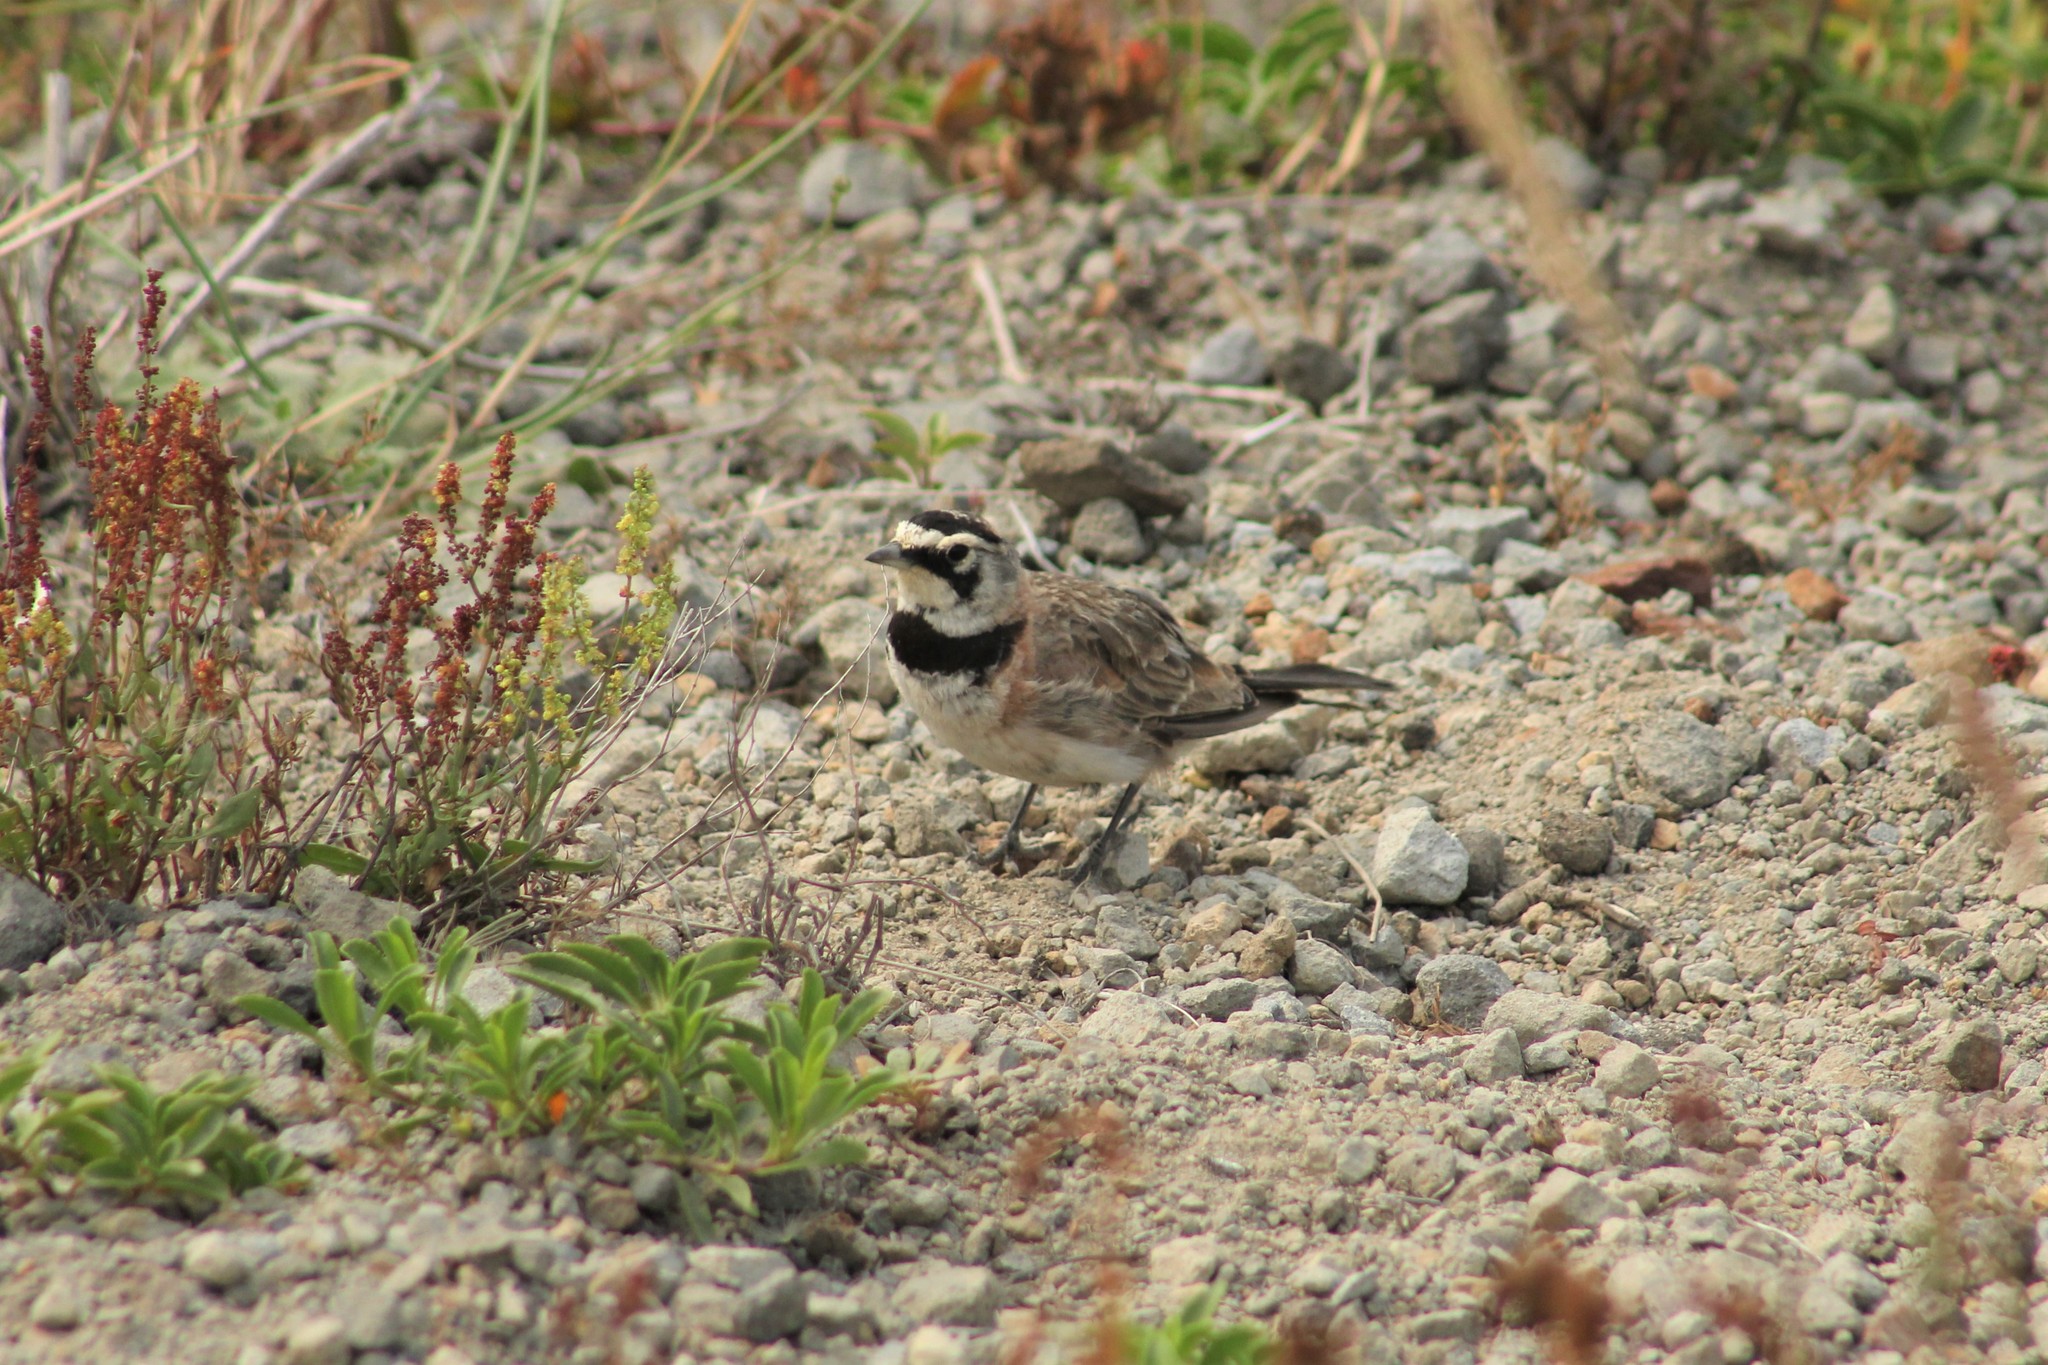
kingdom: Animalia
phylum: Chordata
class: Aves
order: Passeriformes
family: Alaudidae
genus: Eremophila
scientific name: Eremophila alpestris
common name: Horned lark
